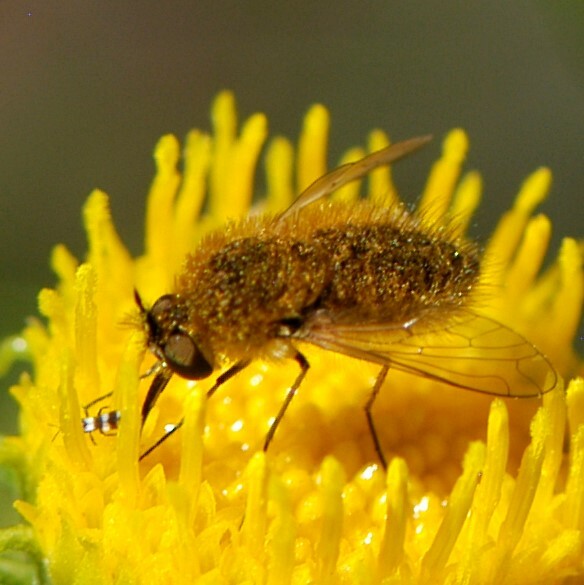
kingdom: Animalia
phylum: Arthropoda
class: Insecta
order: Diptera
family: Bombyliidae
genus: Sparnopolius
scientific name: Sparnopolius
